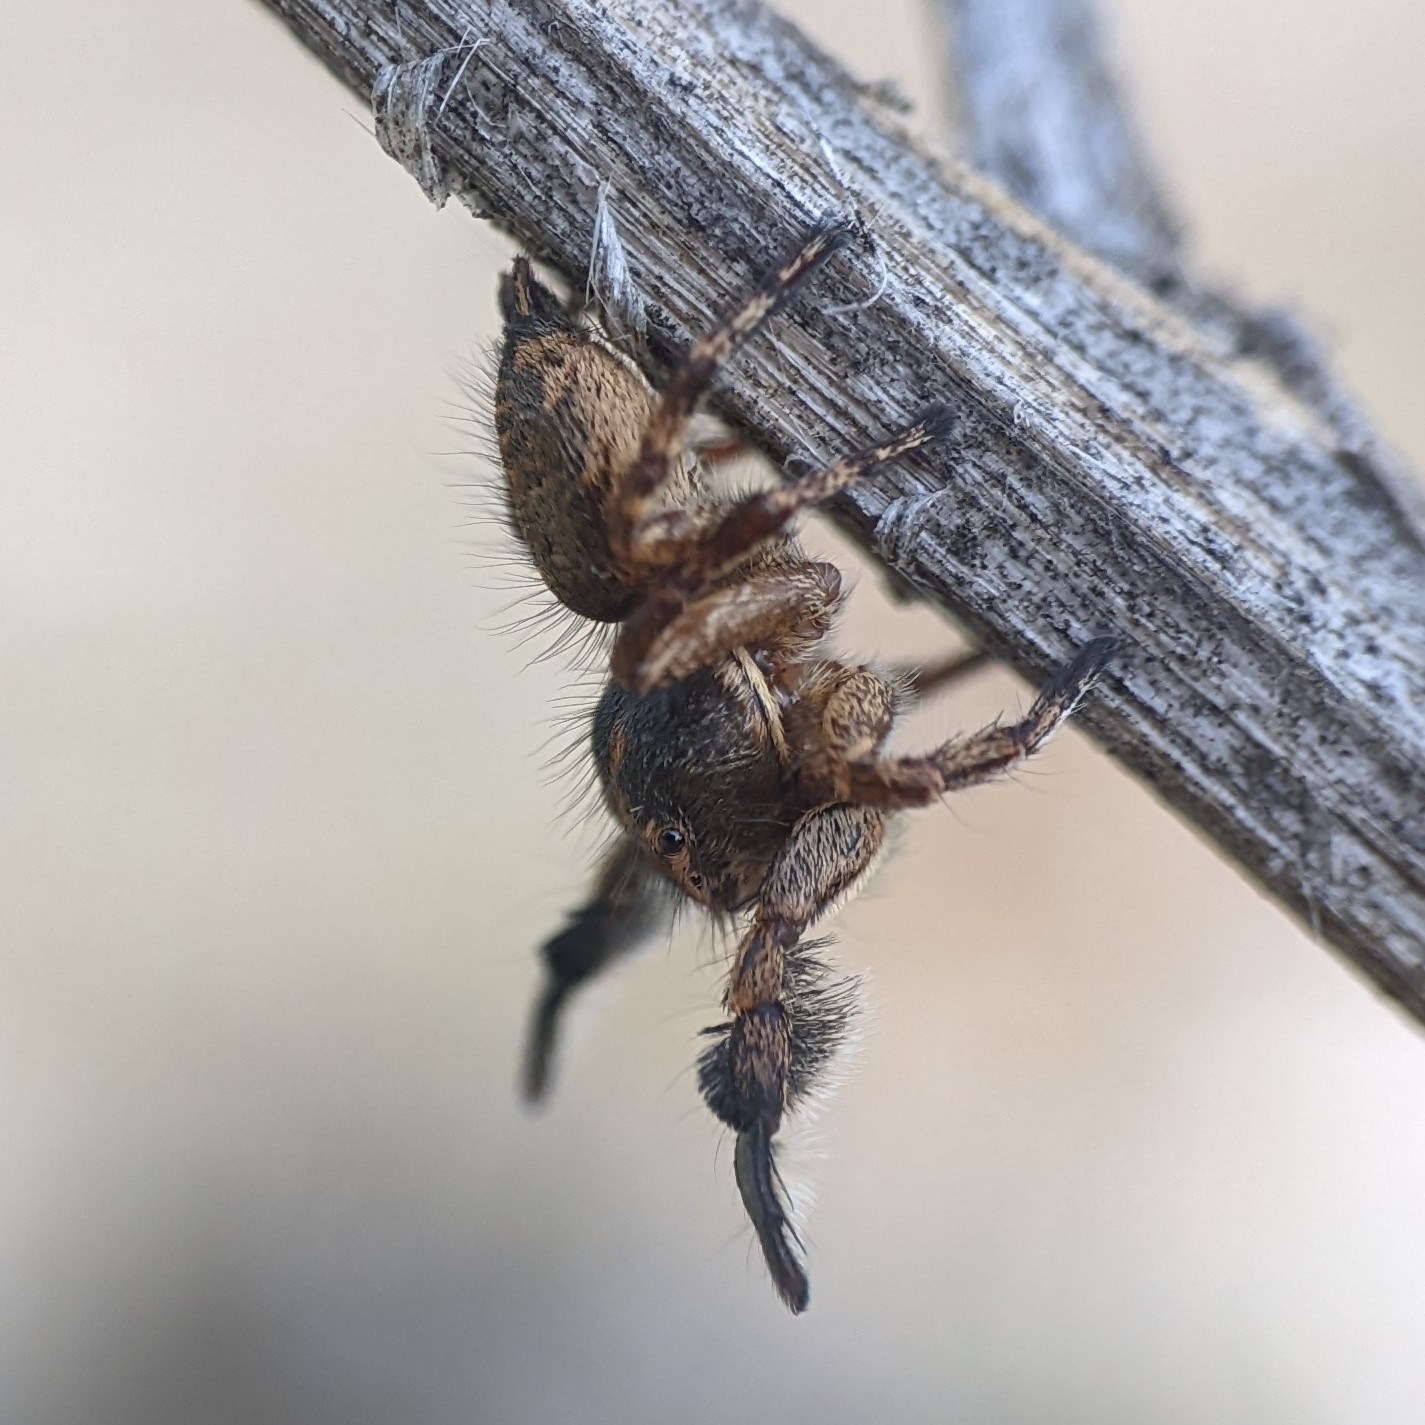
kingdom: Animalia
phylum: Arthropoda
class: Arachnida
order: Araneae
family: Salticidae
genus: Habronattus
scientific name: Habronattus hirsutus
